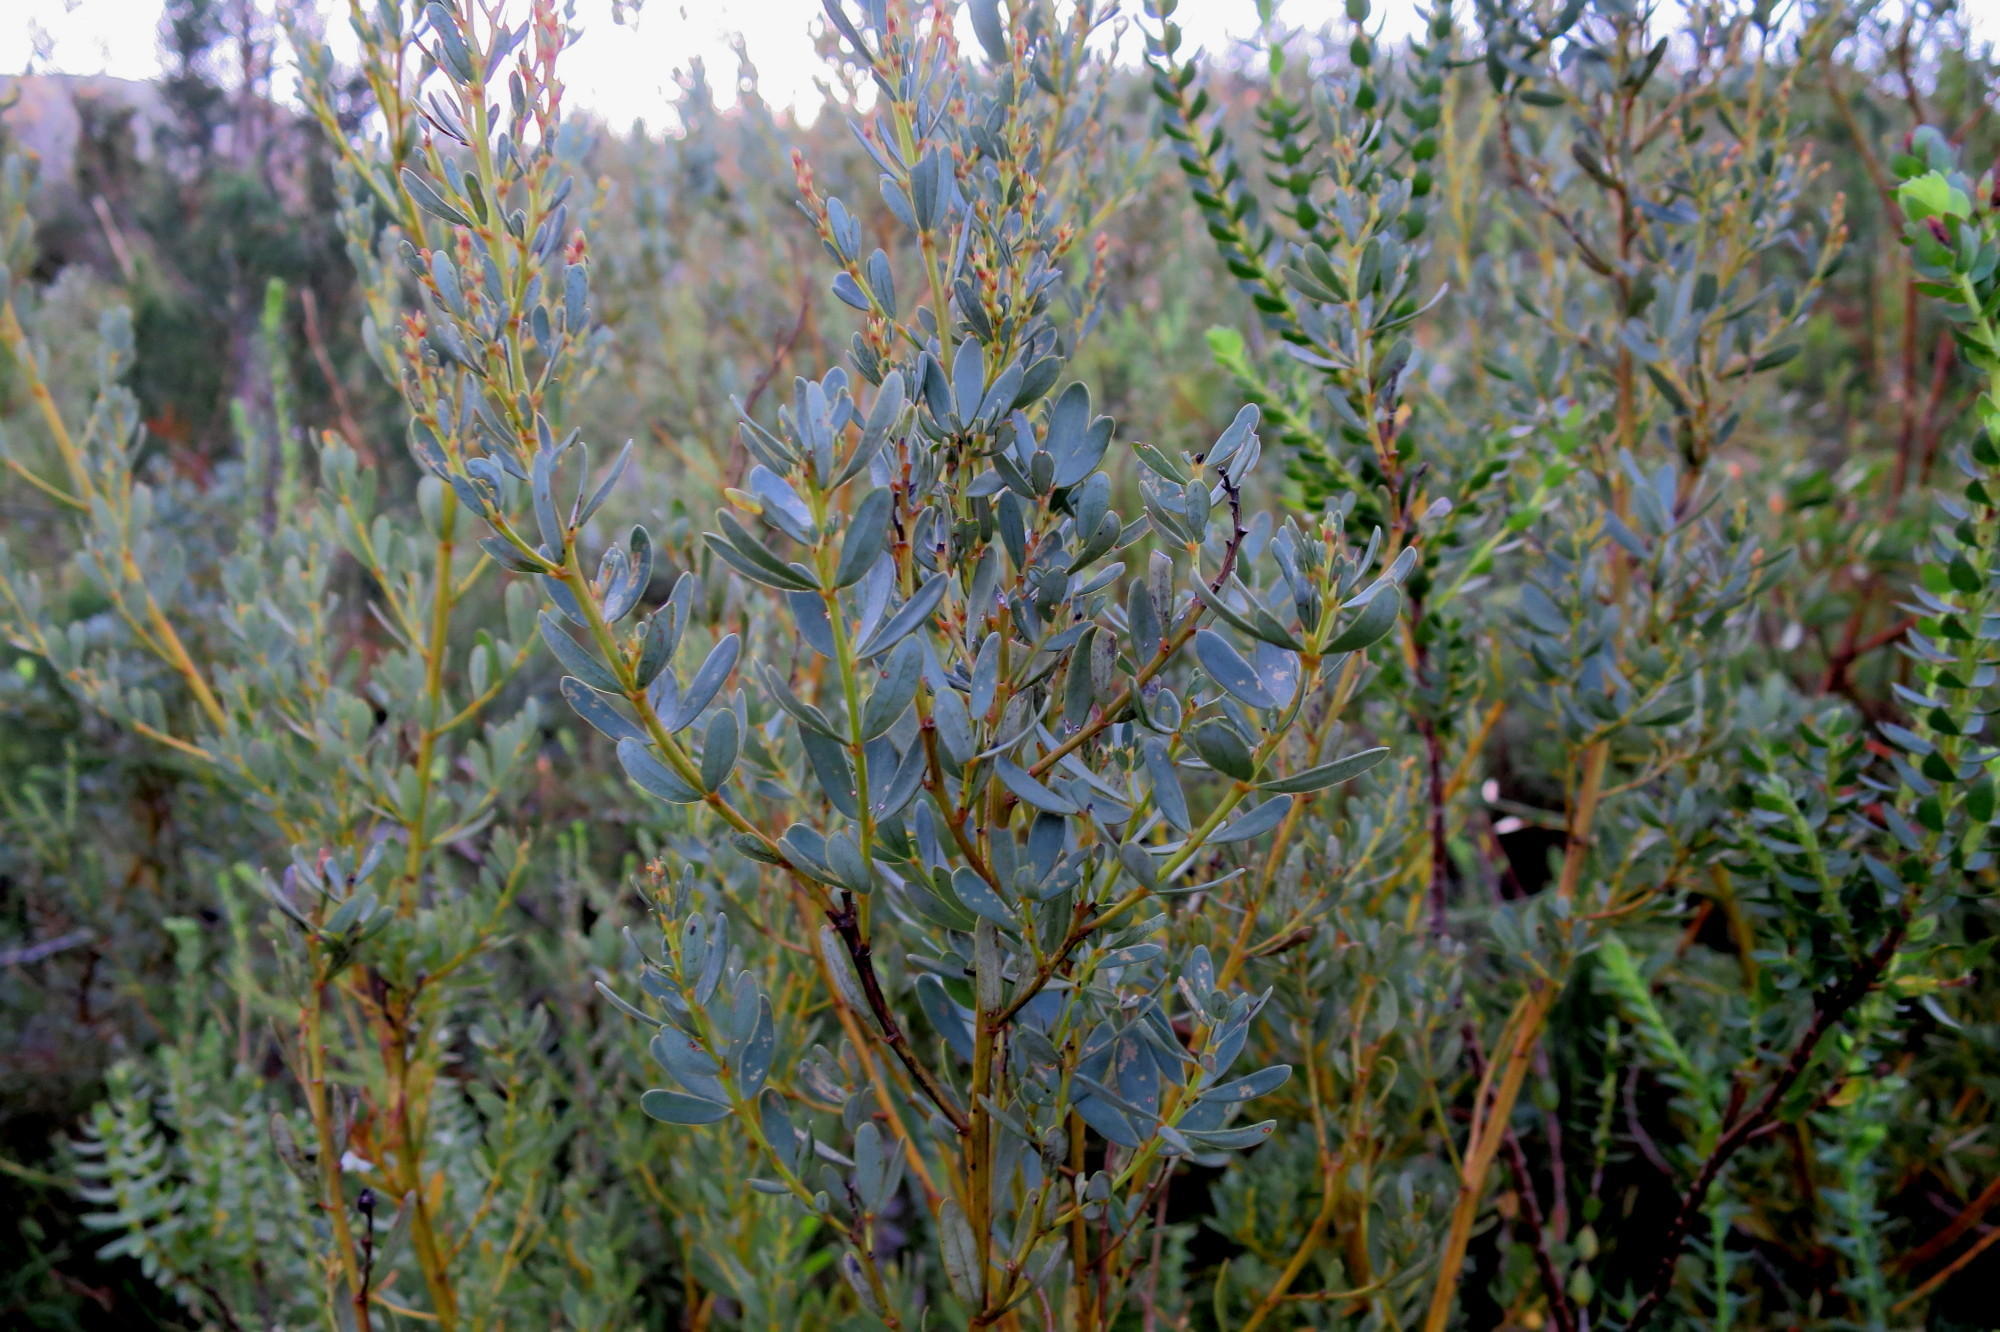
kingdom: Plantae
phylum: Tracheophyta
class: Magnoliopsida
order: Fabales
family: Fabaceae
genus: Cyclopia
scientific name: Cyclopia subternata
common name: Honeybush tea
